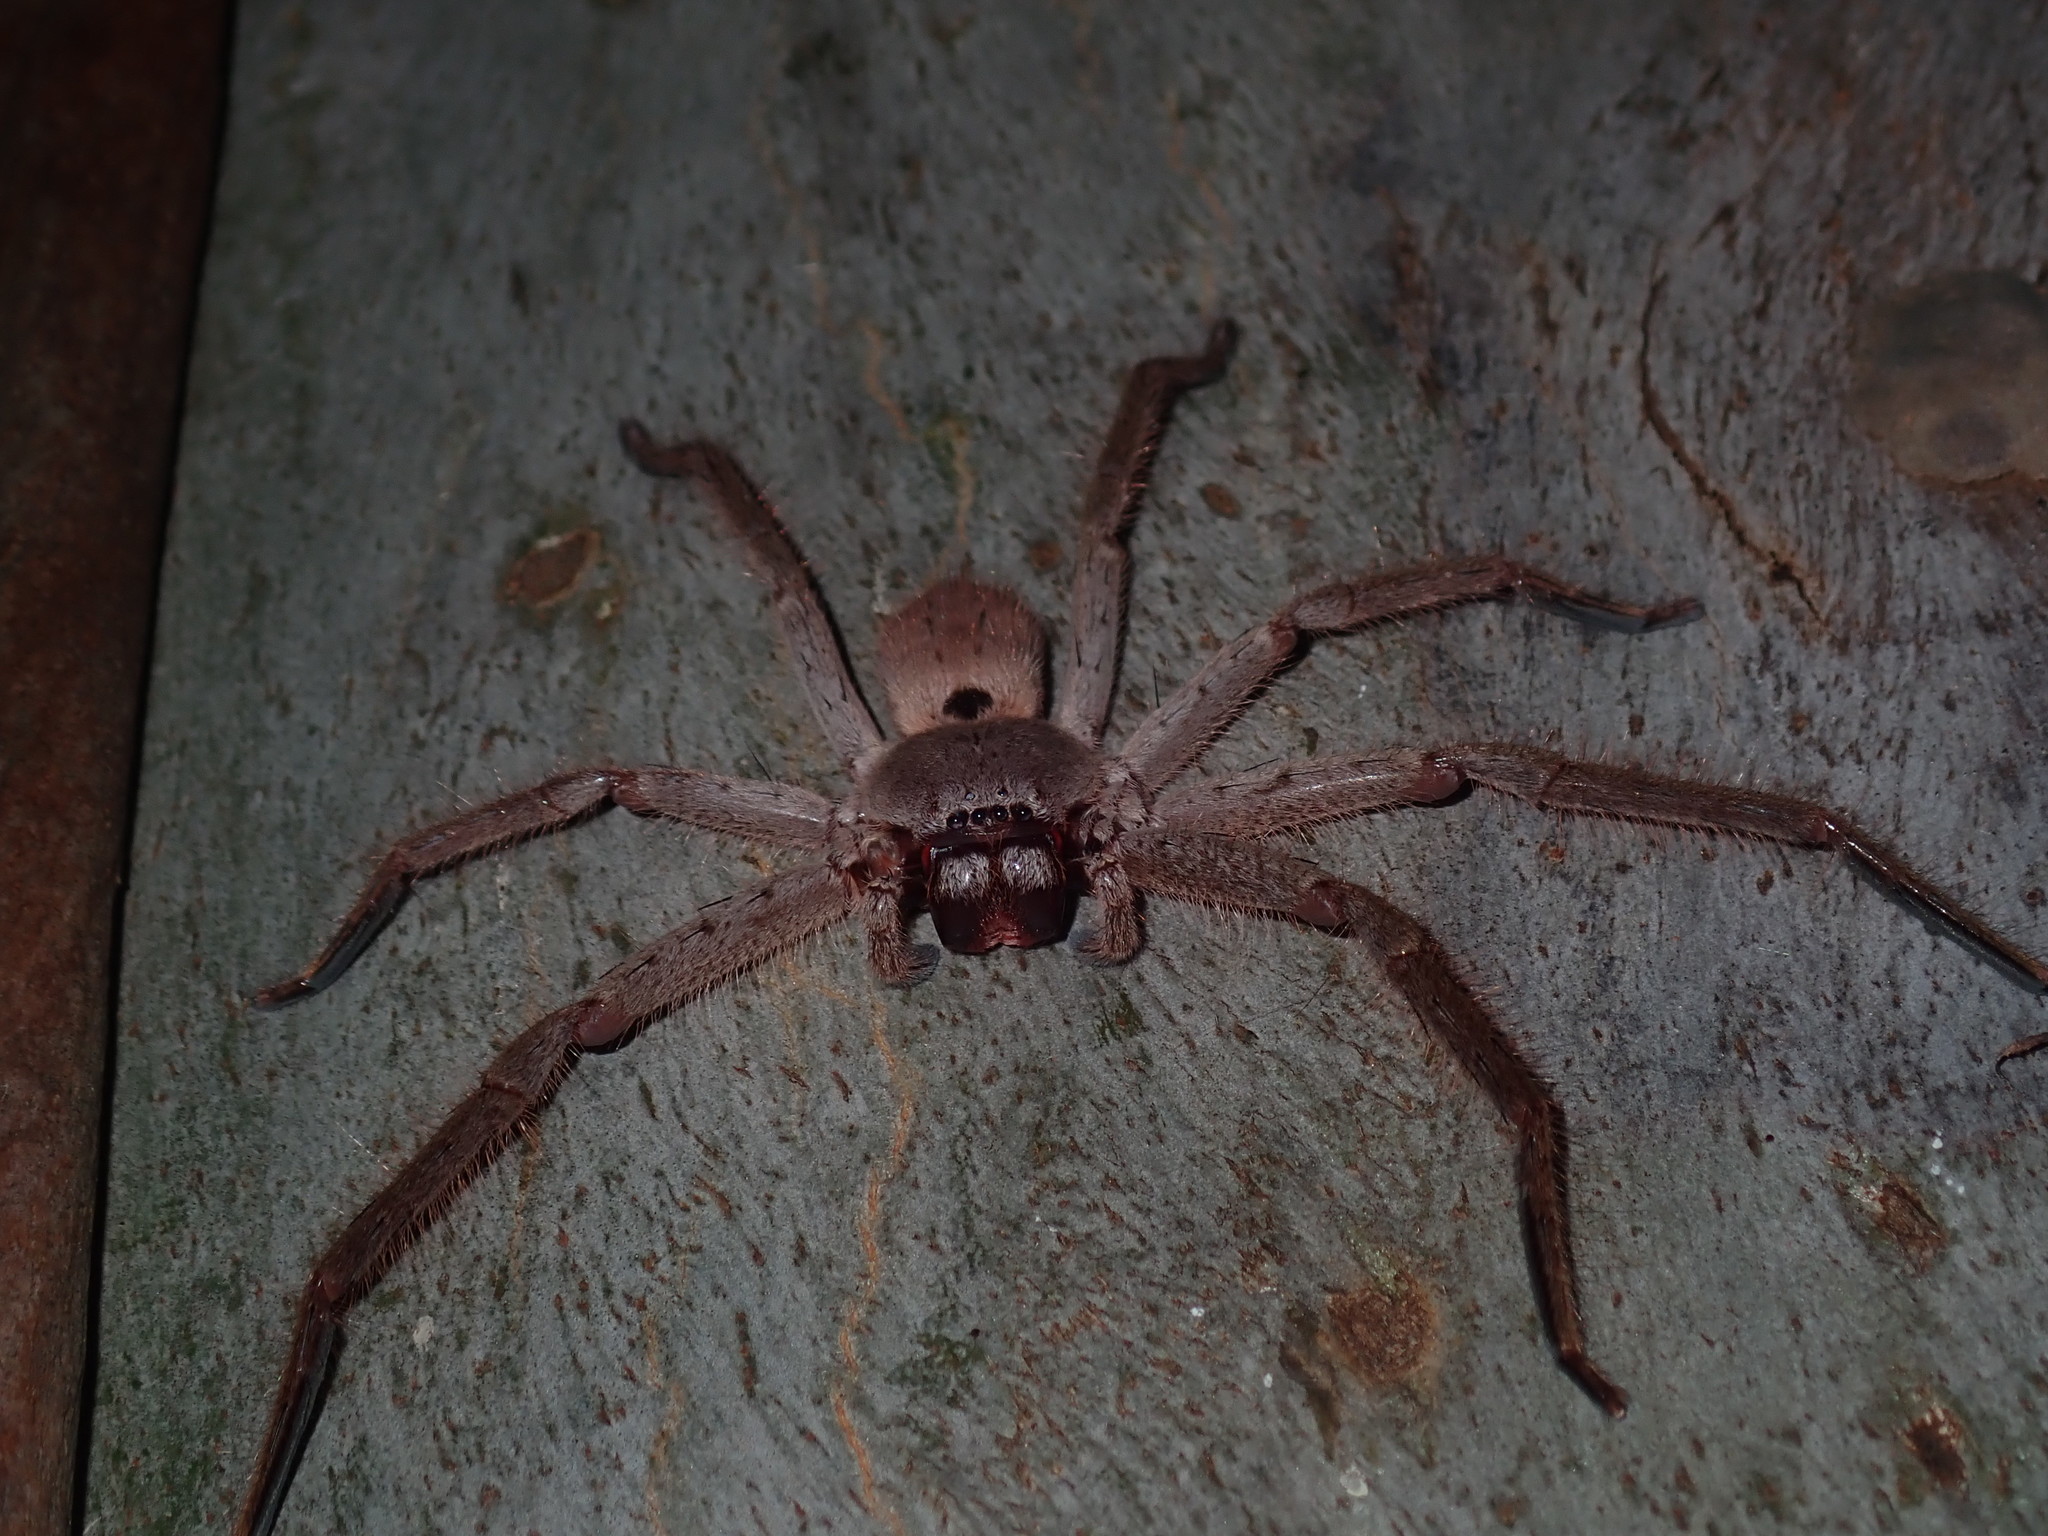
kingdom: Animalia
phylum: Arthropoda
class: Arachnida
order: Araneae
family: Sparassidae
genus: Isopeda
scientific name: Isopeda villosa
